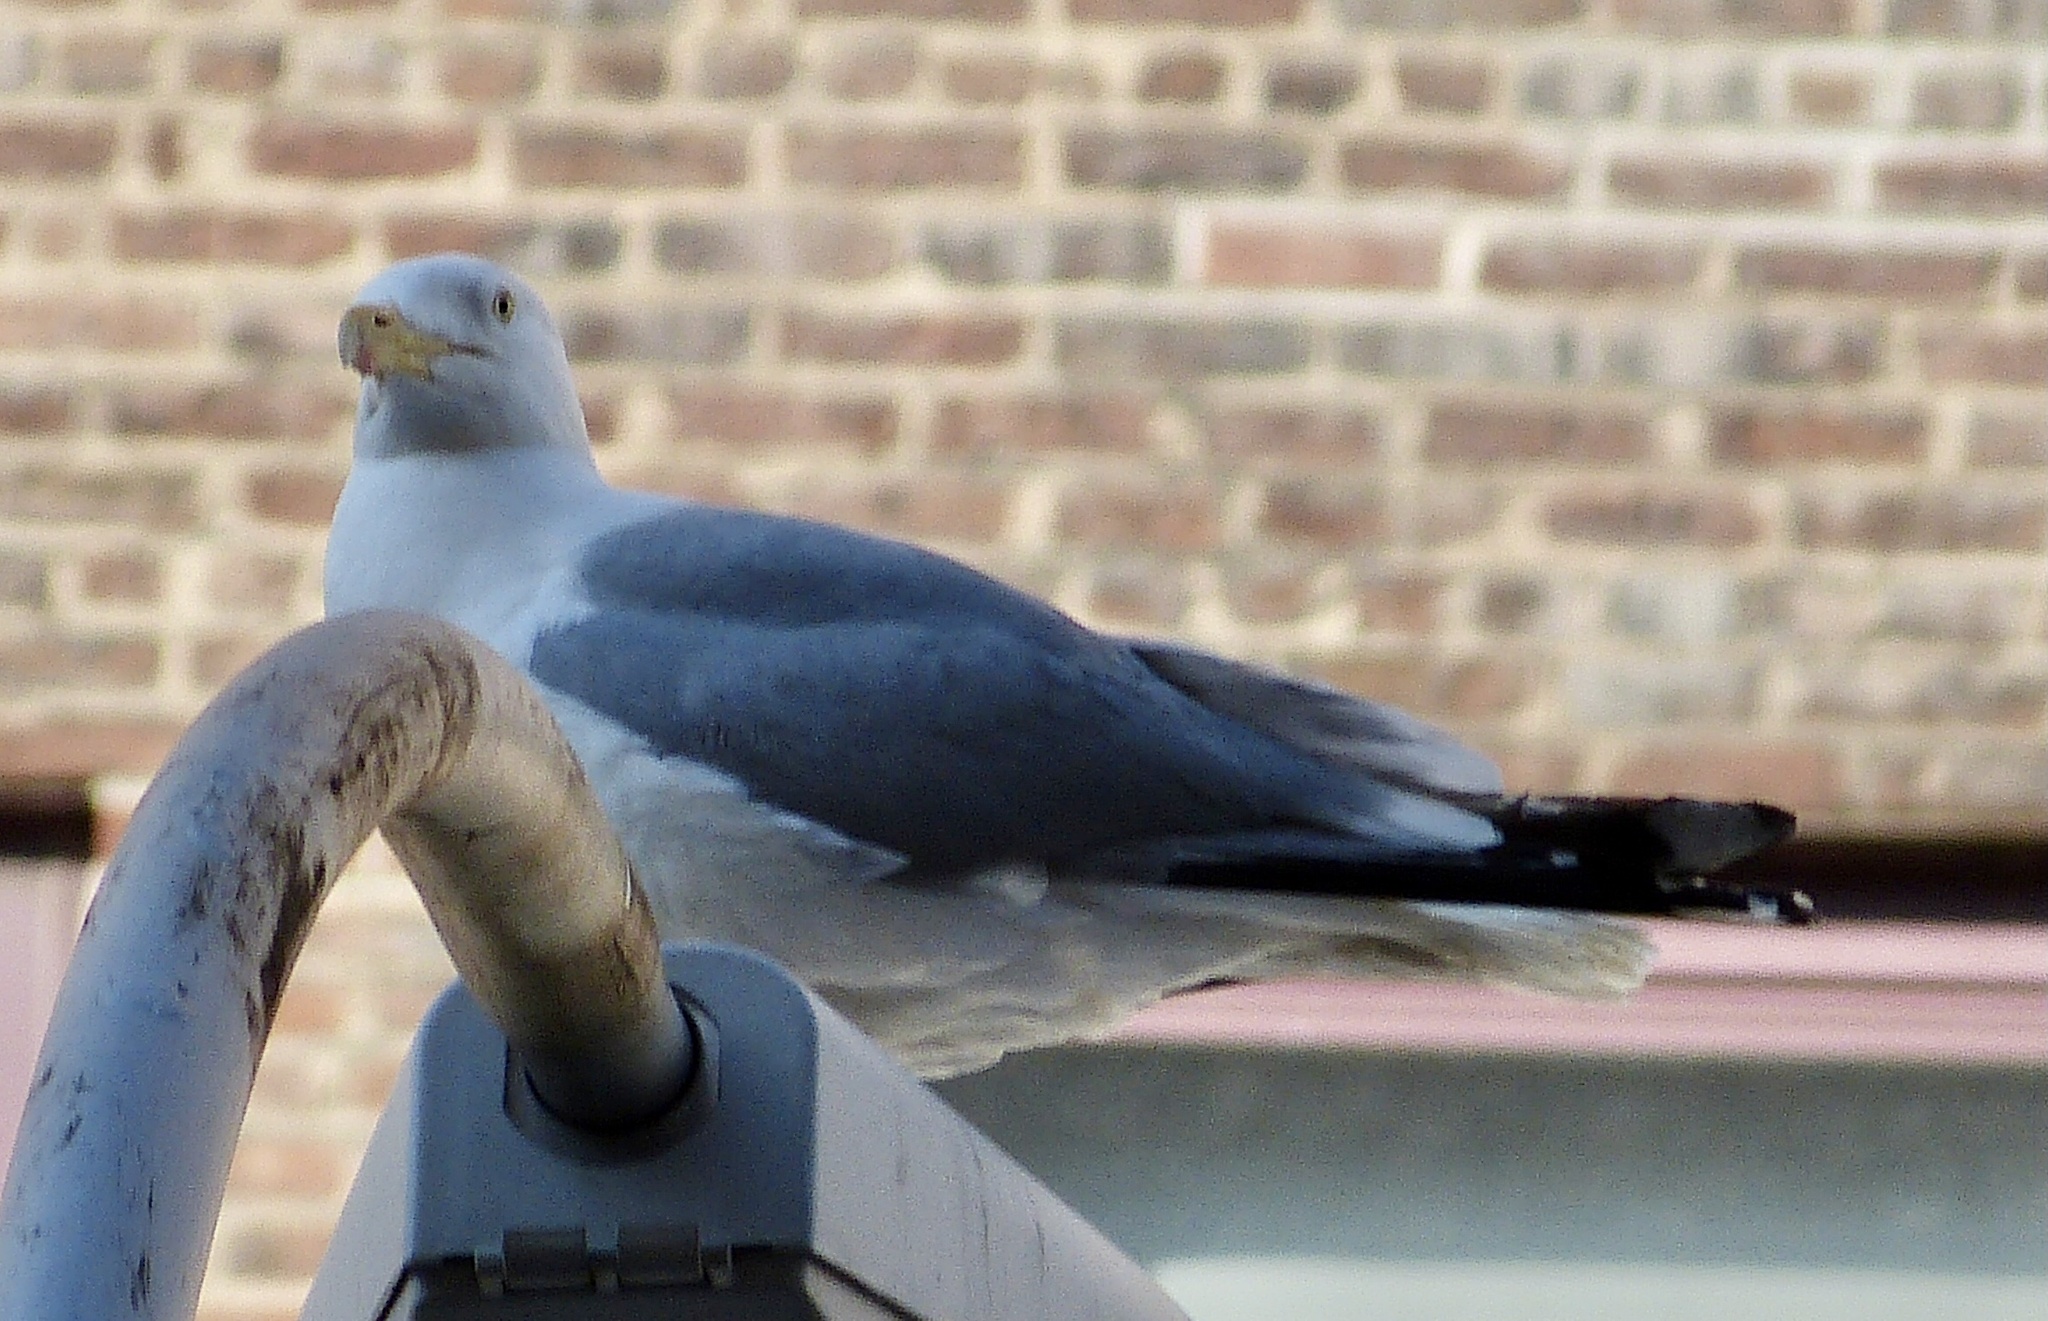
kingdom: Animalia
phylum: Chordata
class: Aves
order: Charadriiformes
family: Laridae
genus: Larus
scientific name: Larus argentatus
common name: Herring gull
